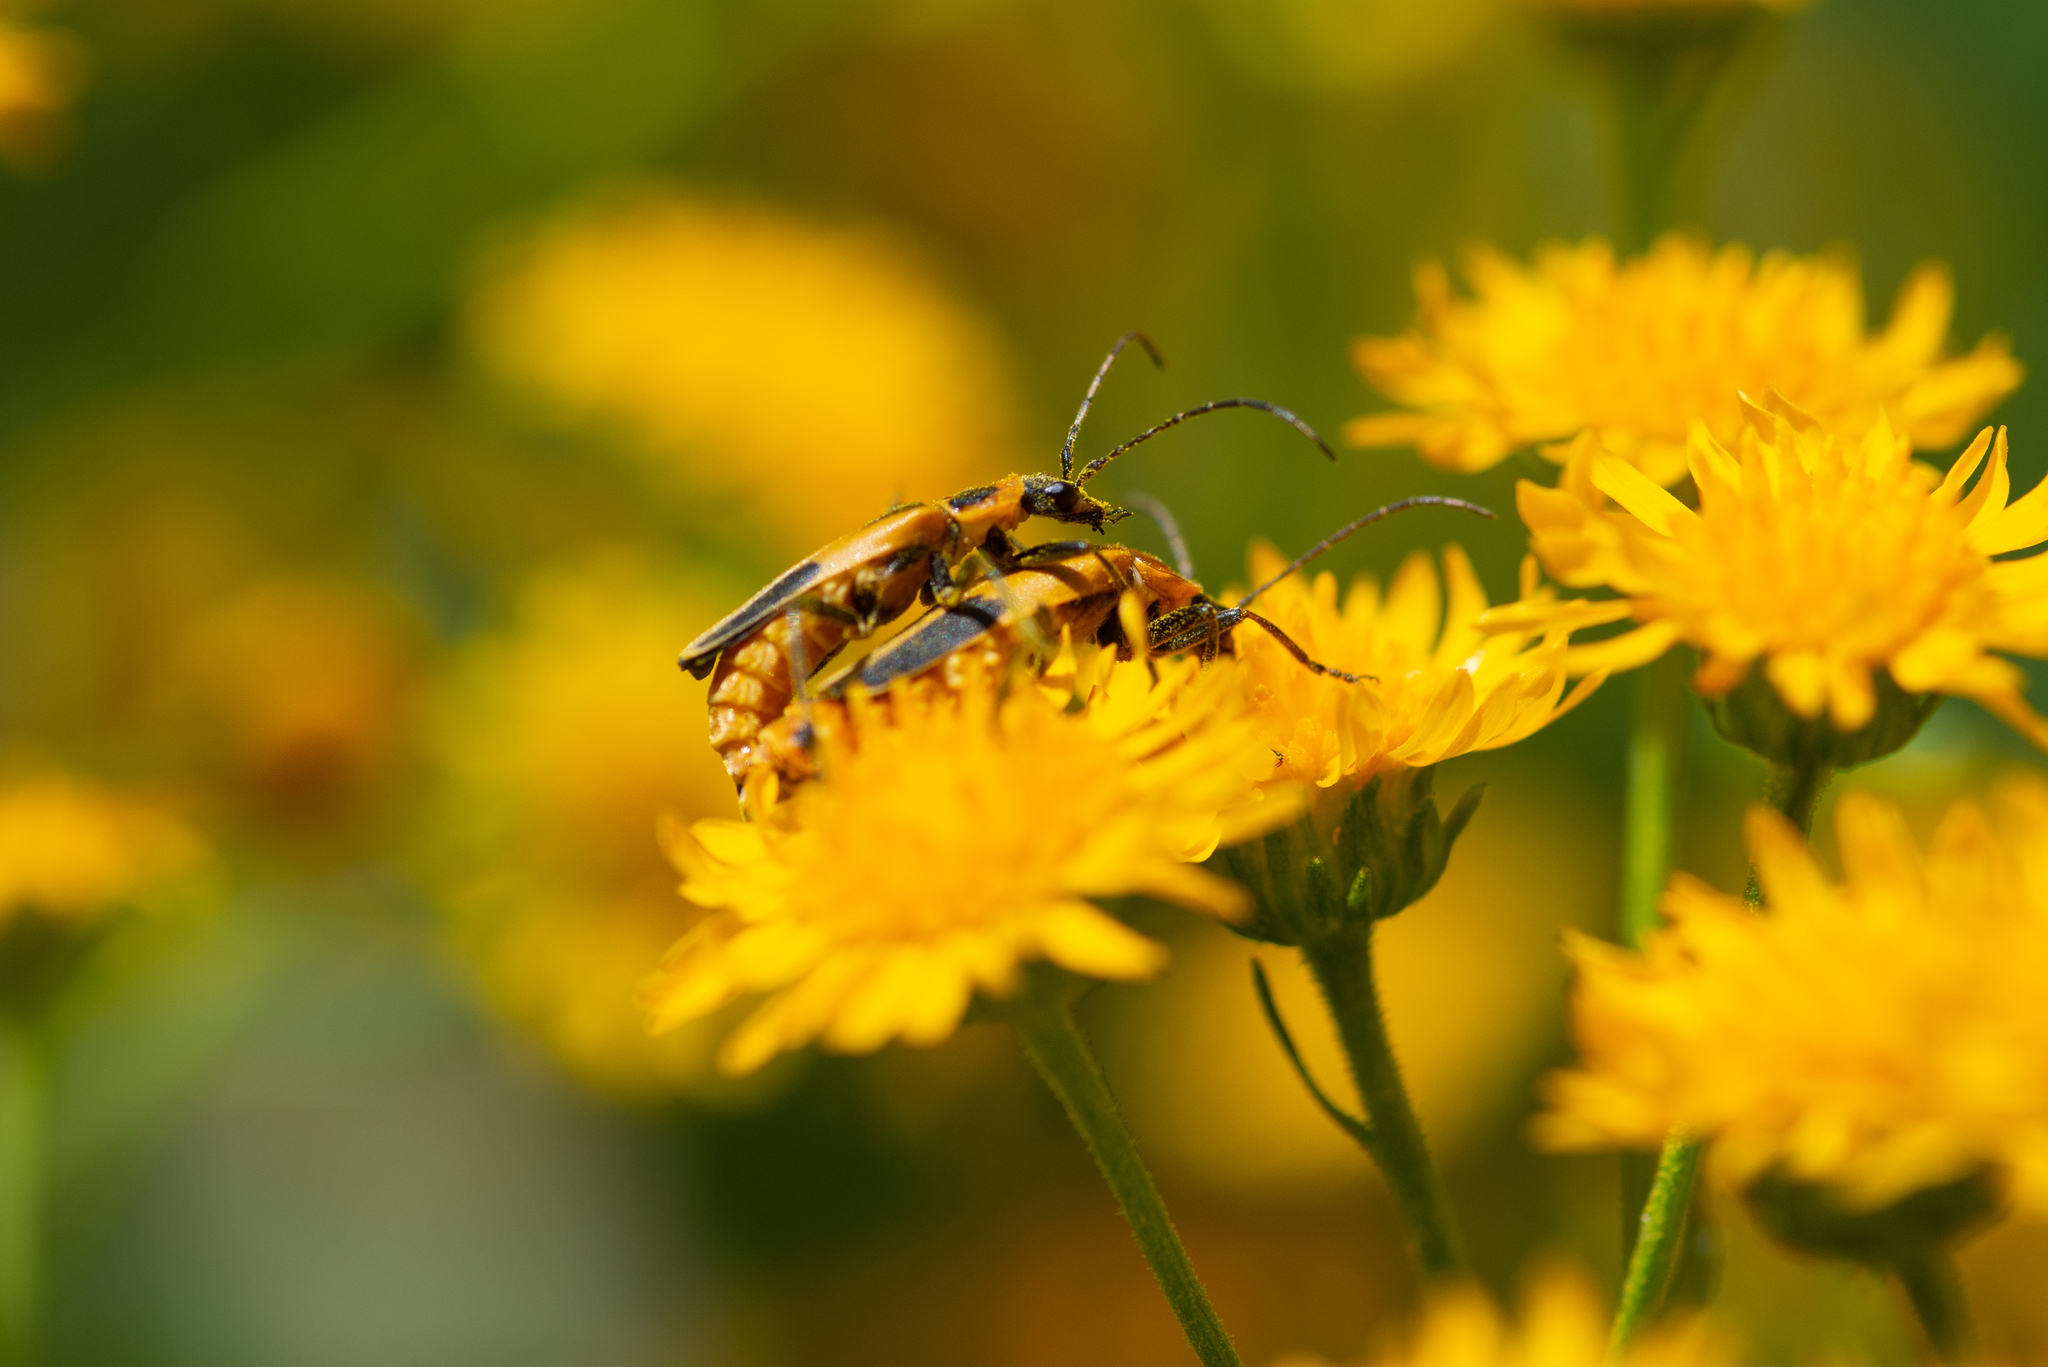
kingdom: Animalia
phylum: Arthropoda
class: Insecta
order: Coleoptera
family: Cantharidae
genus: Chauliognathus
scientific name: Chauliognathus omissus
